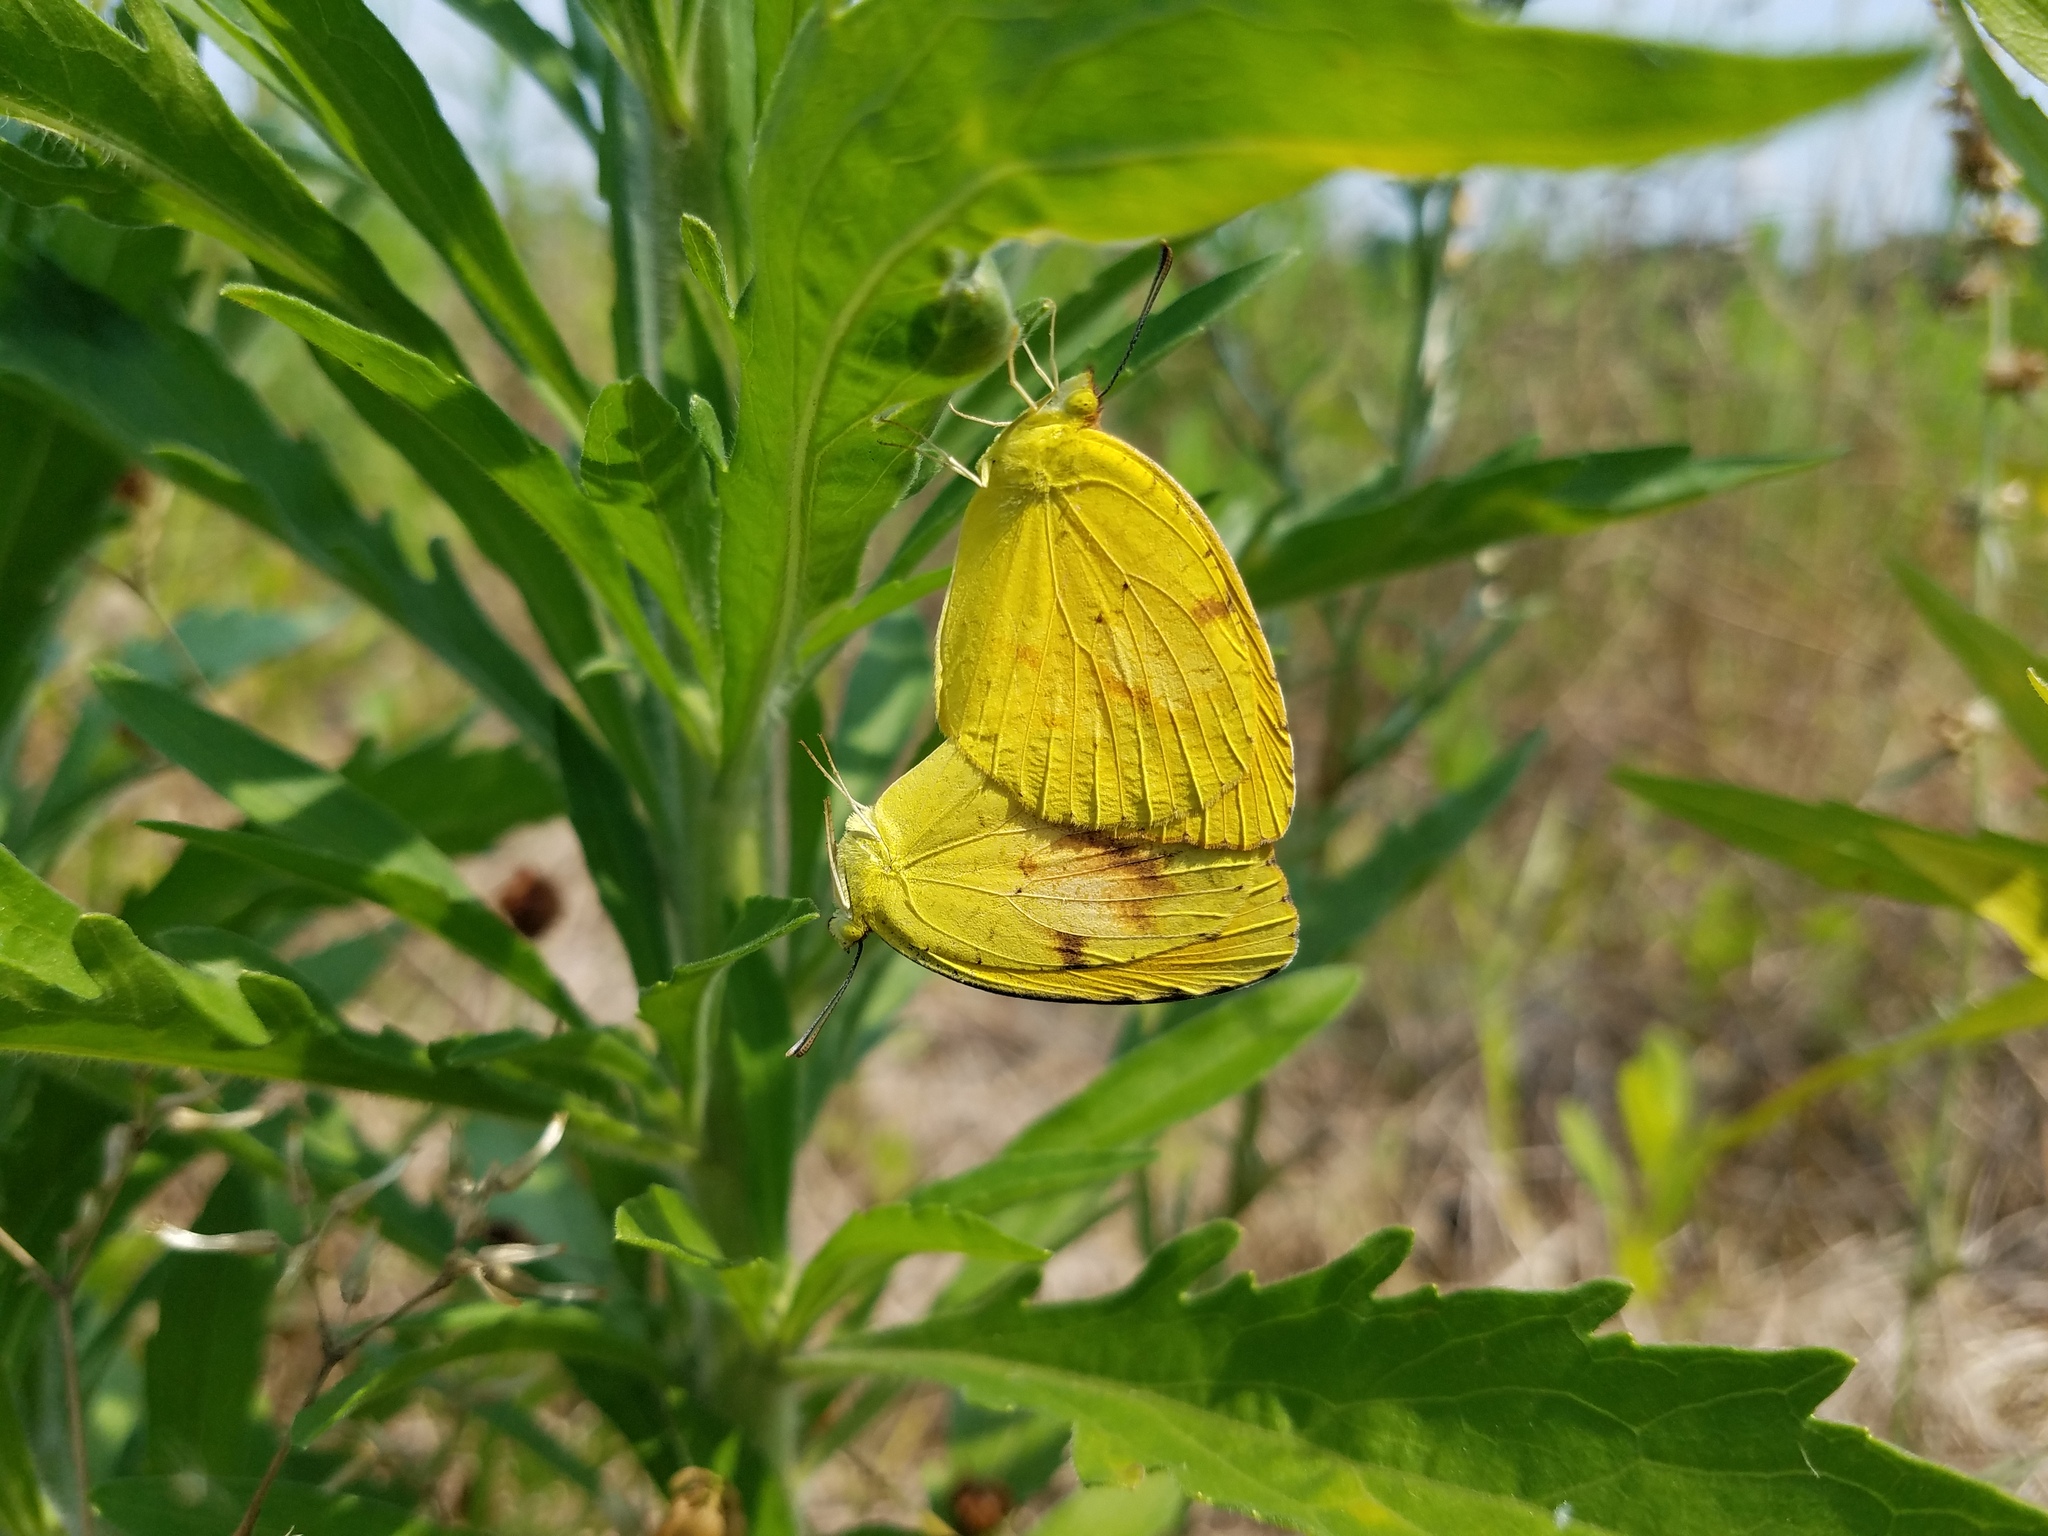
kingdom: Animalia
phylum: Arthropoda
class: Insecta
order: Lepidoptera
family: Pieridae
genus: Abaeis
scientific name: Abaeis nicippe
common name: Sleepy orange
